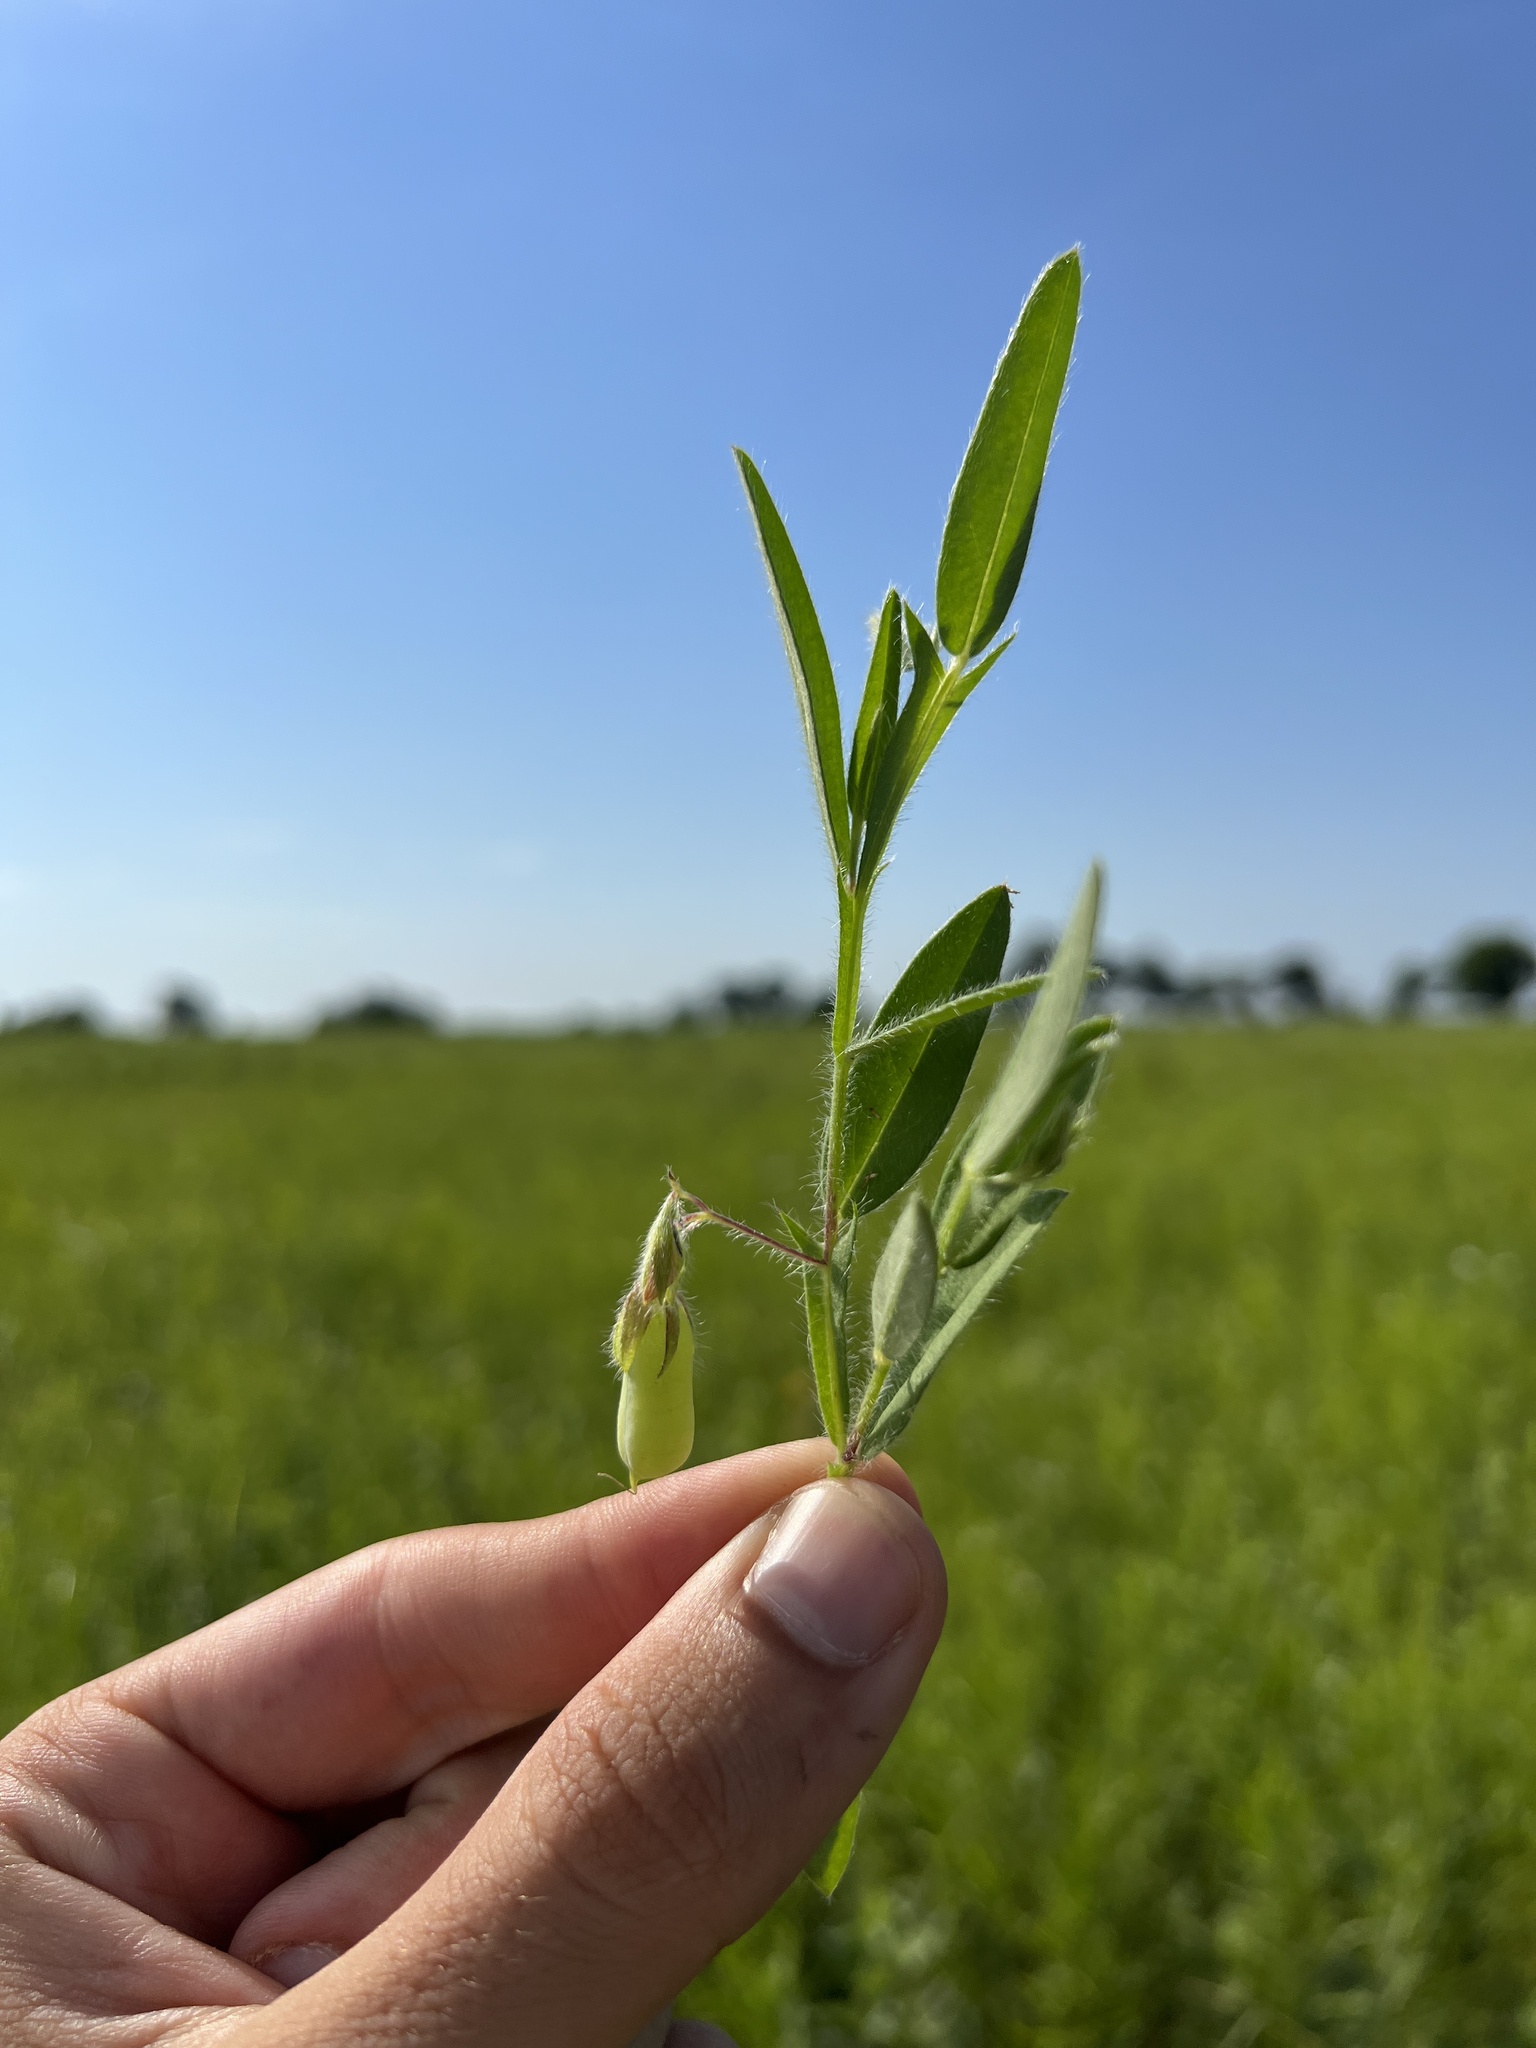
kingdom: Plantae
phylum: Tracheophyta
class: Magnoliopsida
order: Fabales
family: Fabaceae
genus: Crotalaria
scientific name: Crotalaria sagittalis
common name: Arrowhead rattlebox
